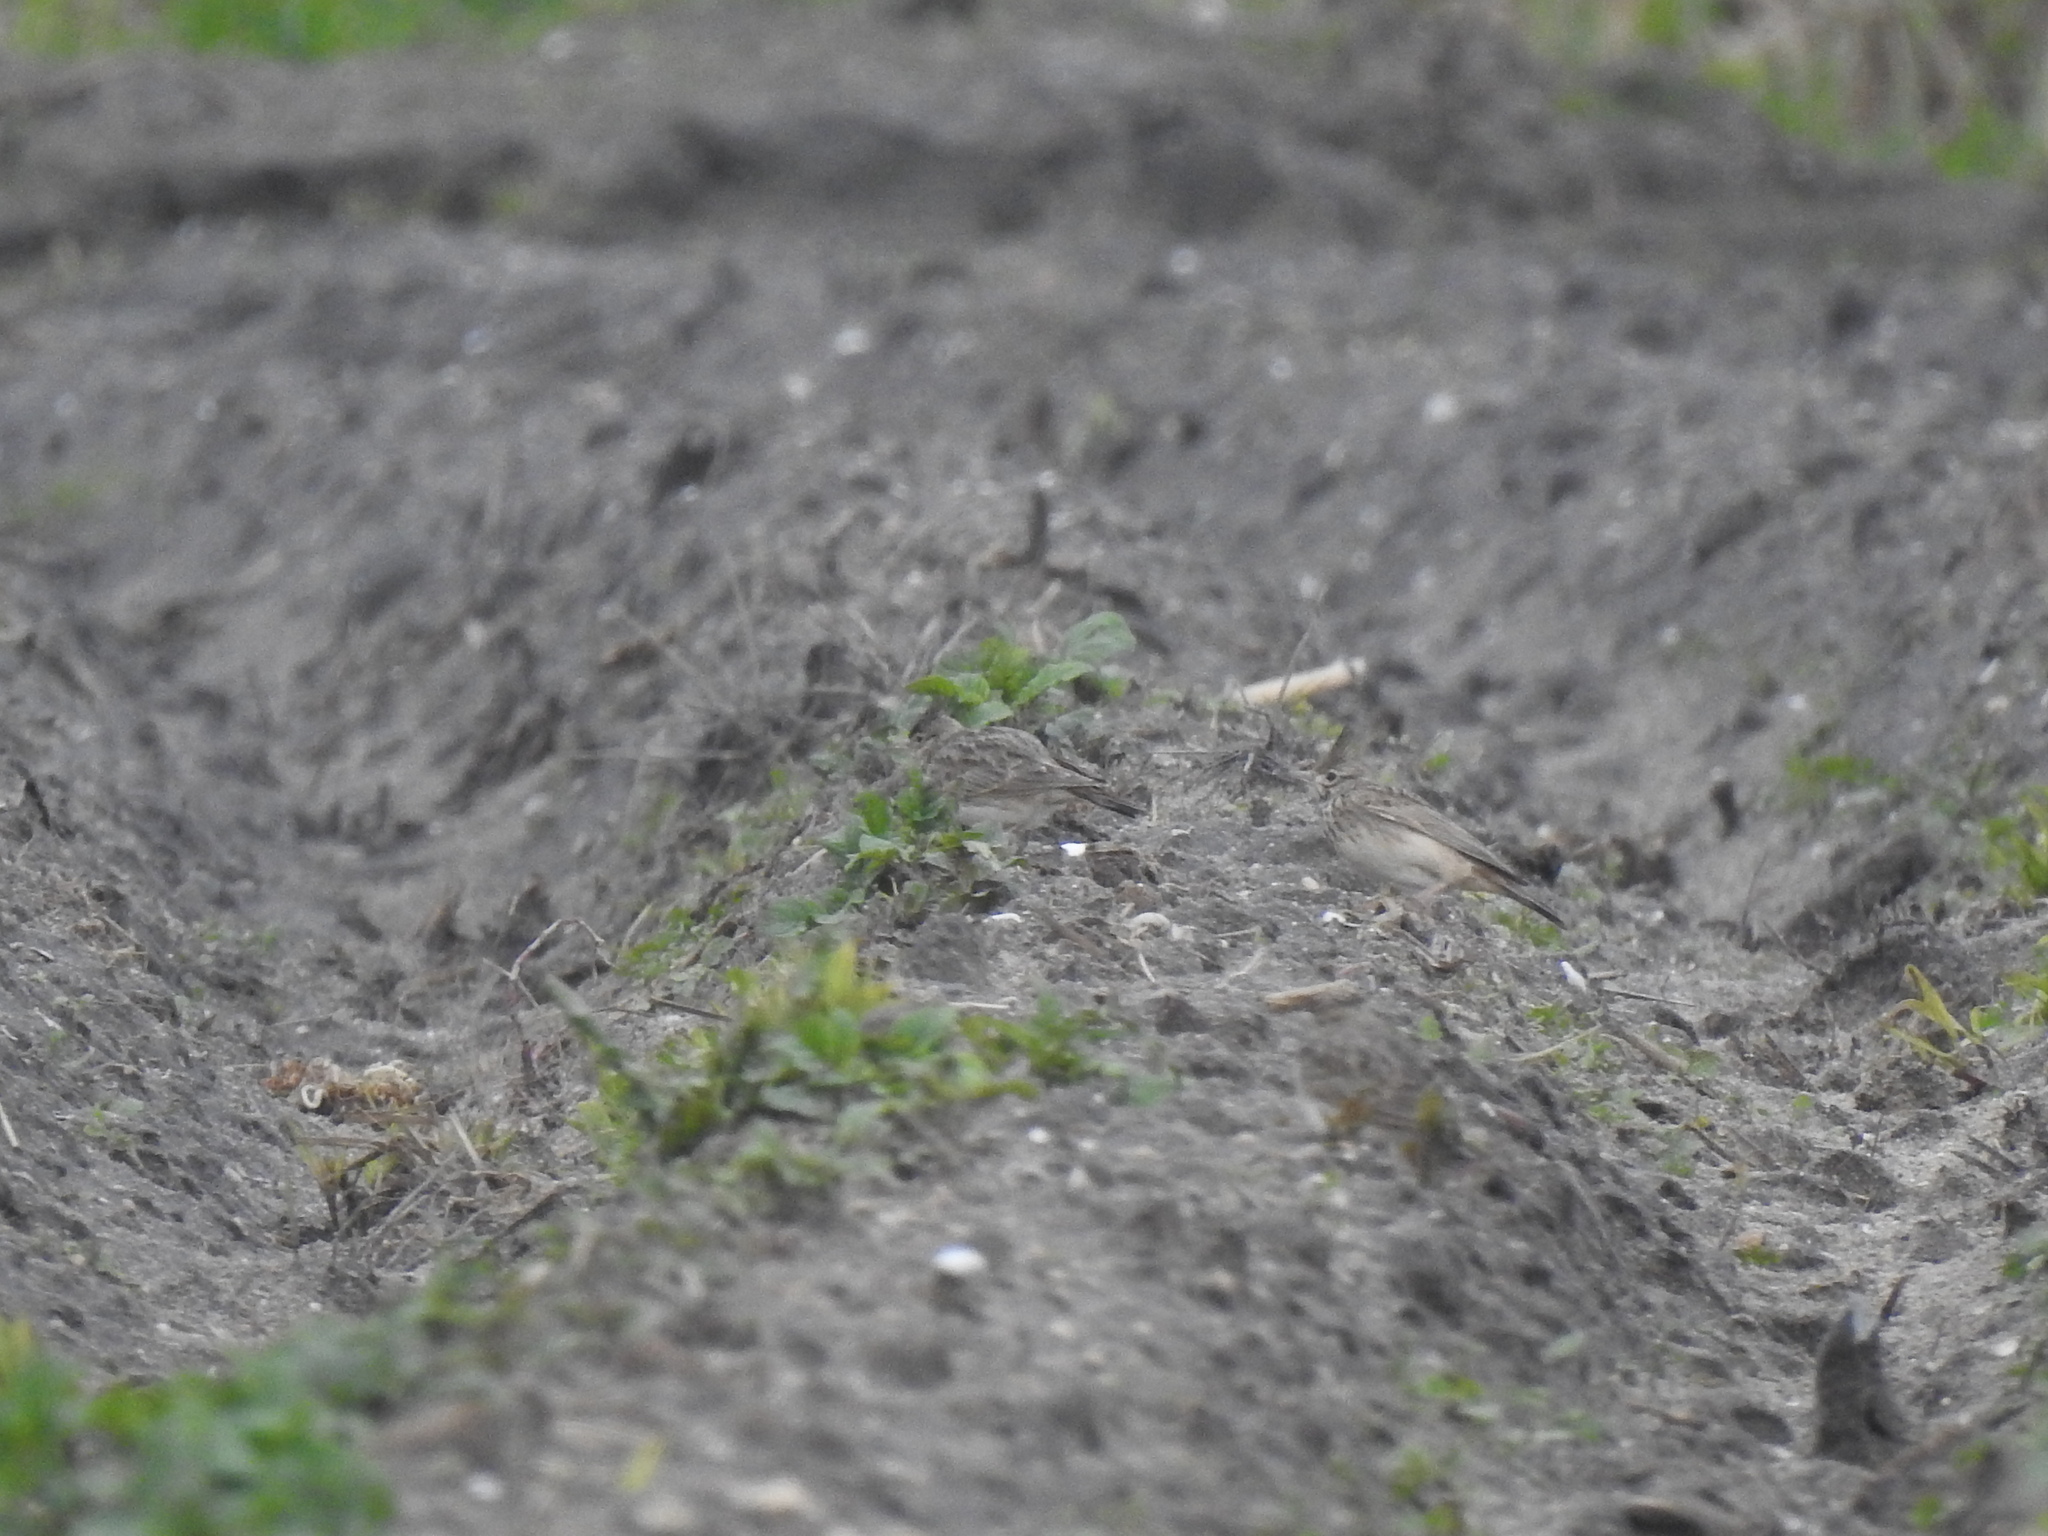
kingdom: Animalia
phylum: Chordata
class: Aves
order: Passeriformes
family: Alaudidae
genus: Galerida
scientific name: Galerida cristata
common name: Crested lark
